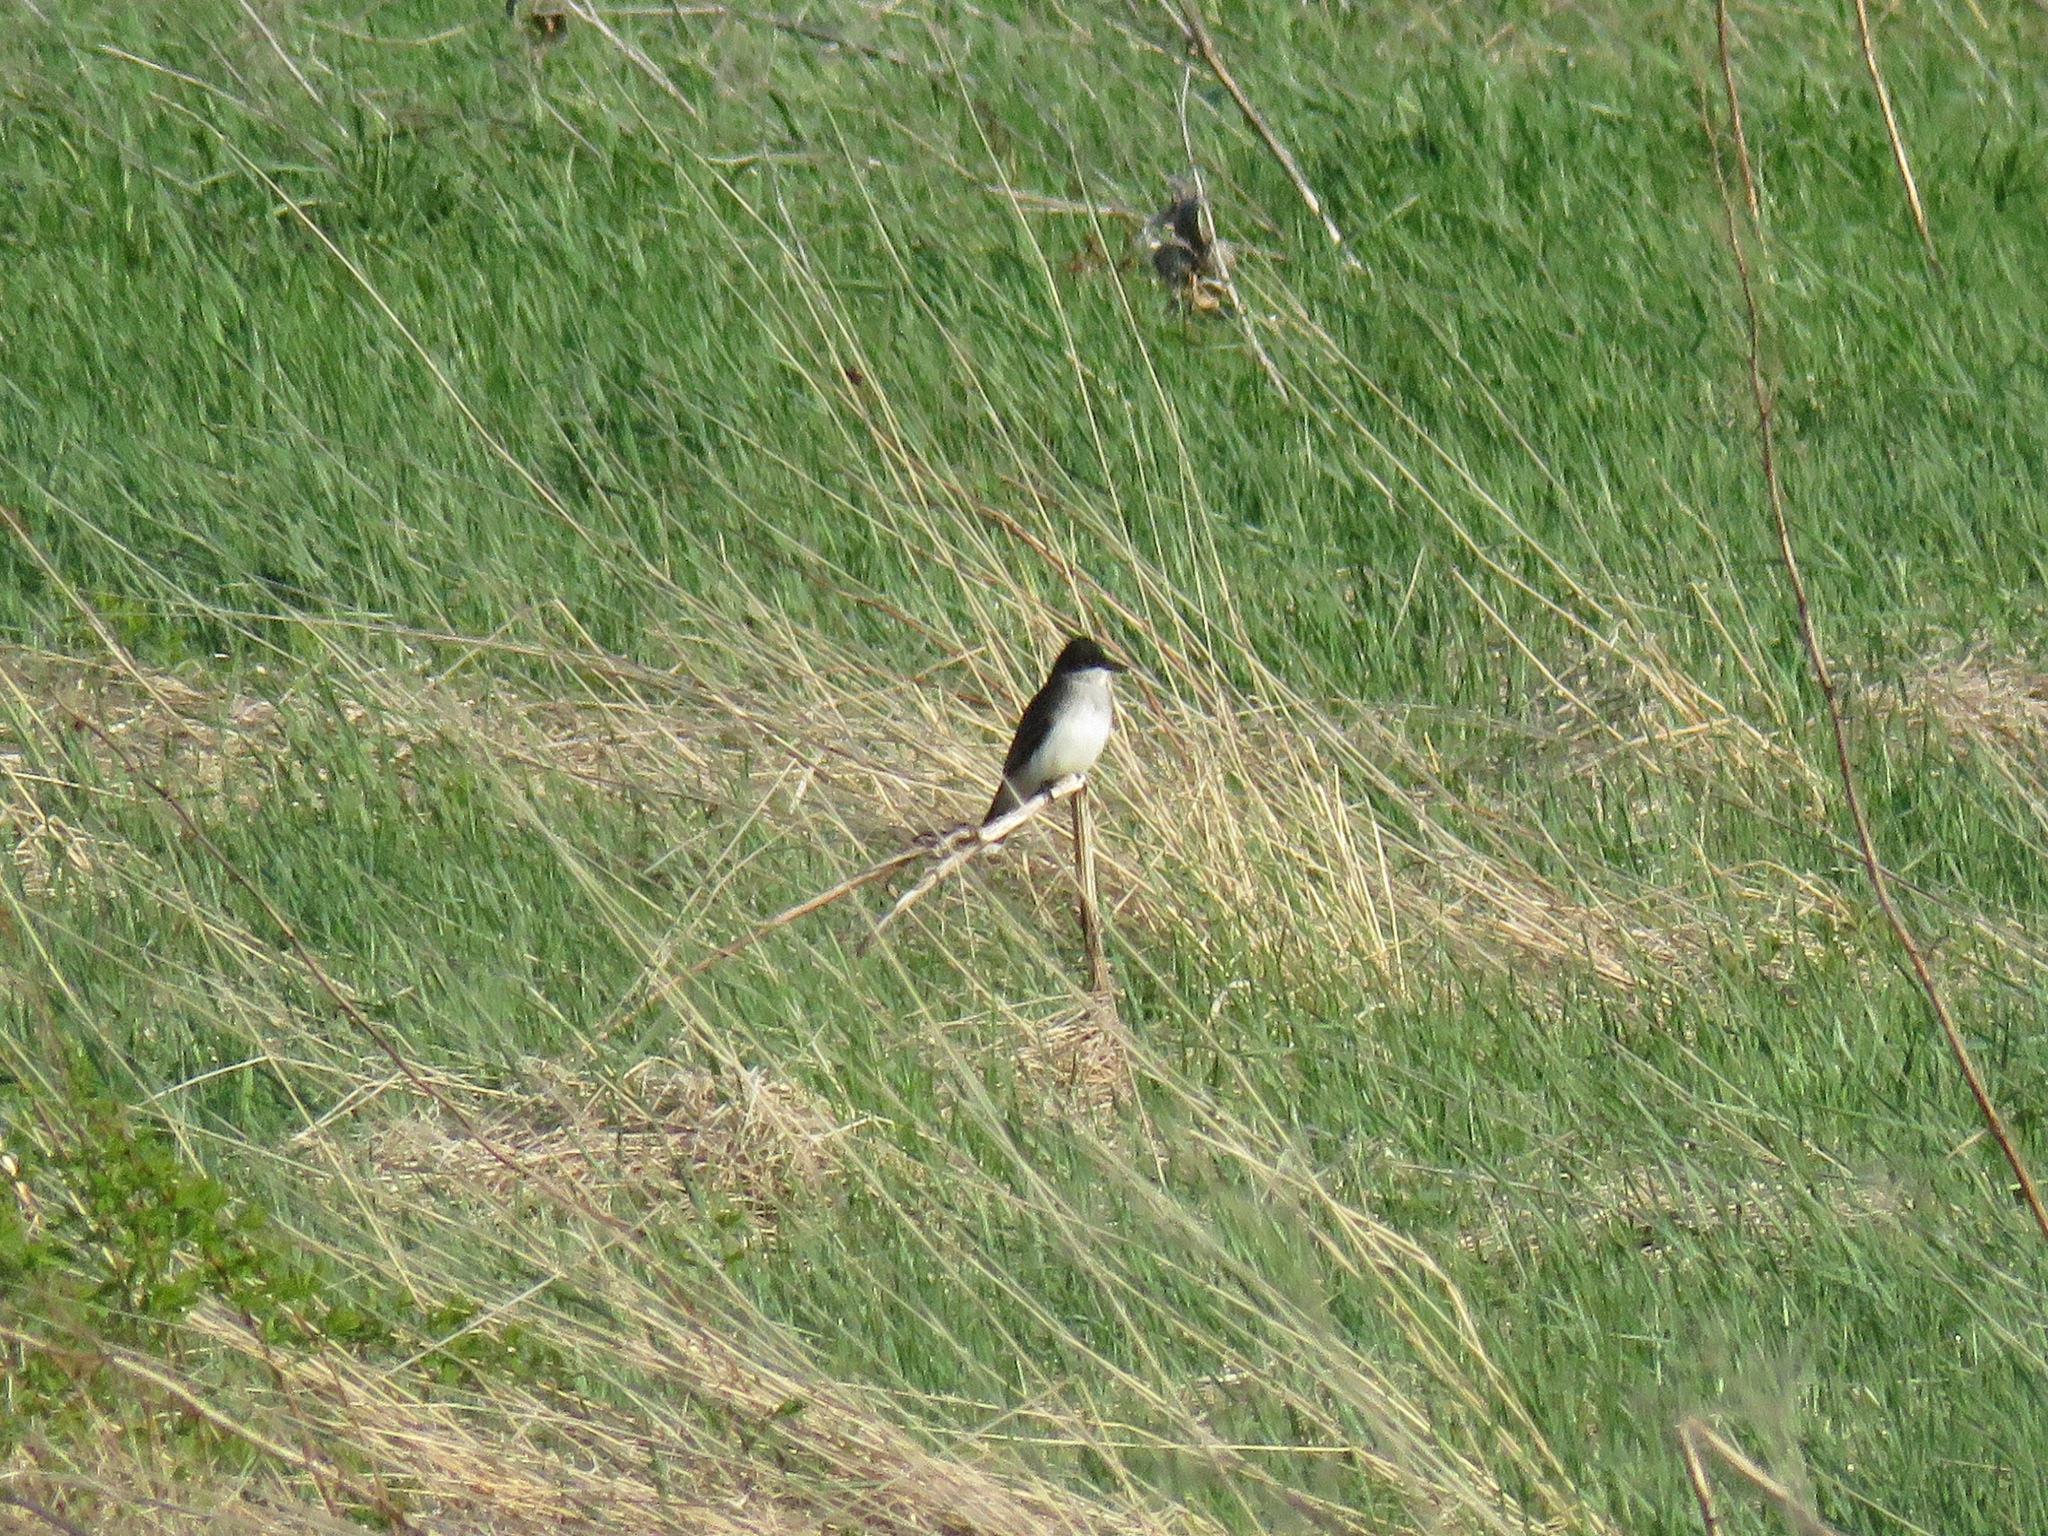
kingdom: Animalia
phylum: Chordata
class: Aves
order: Passeriformes
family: Tyrannidae
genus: Tyrannus
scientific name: Tyrannus tyrannus
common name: Eastern kingbird
